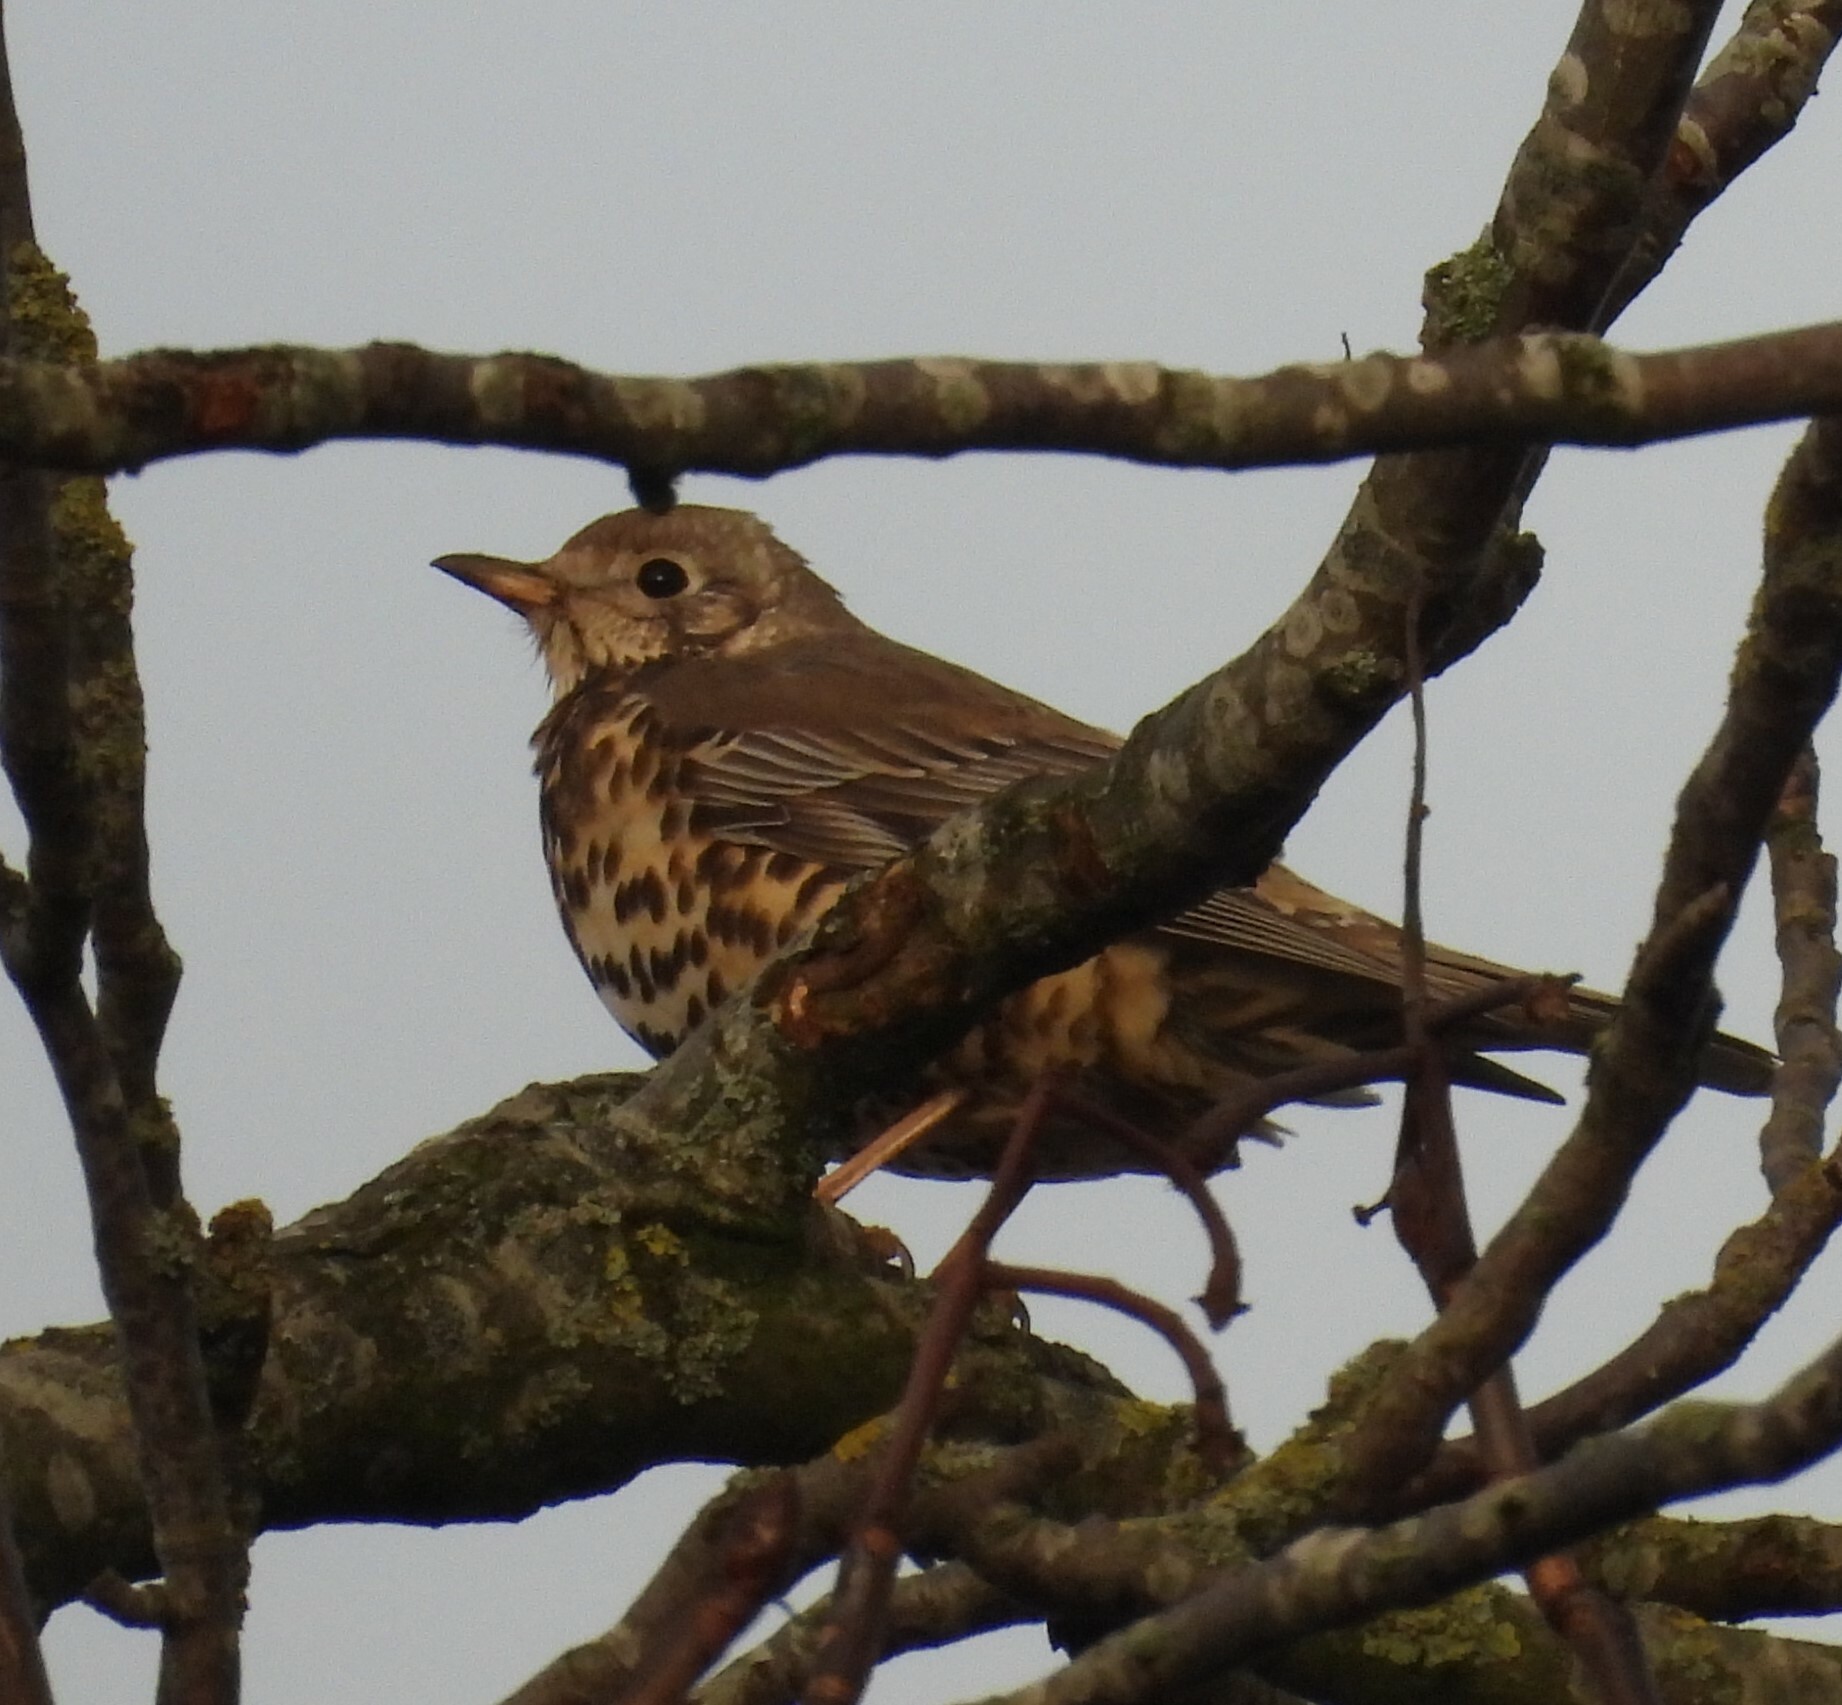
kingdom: Animalia
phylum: Chordata
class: Aves
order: Passeriformes
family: Turdidae
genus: Turdus
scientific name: Turdus viscivorus
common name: Mistle thrush
